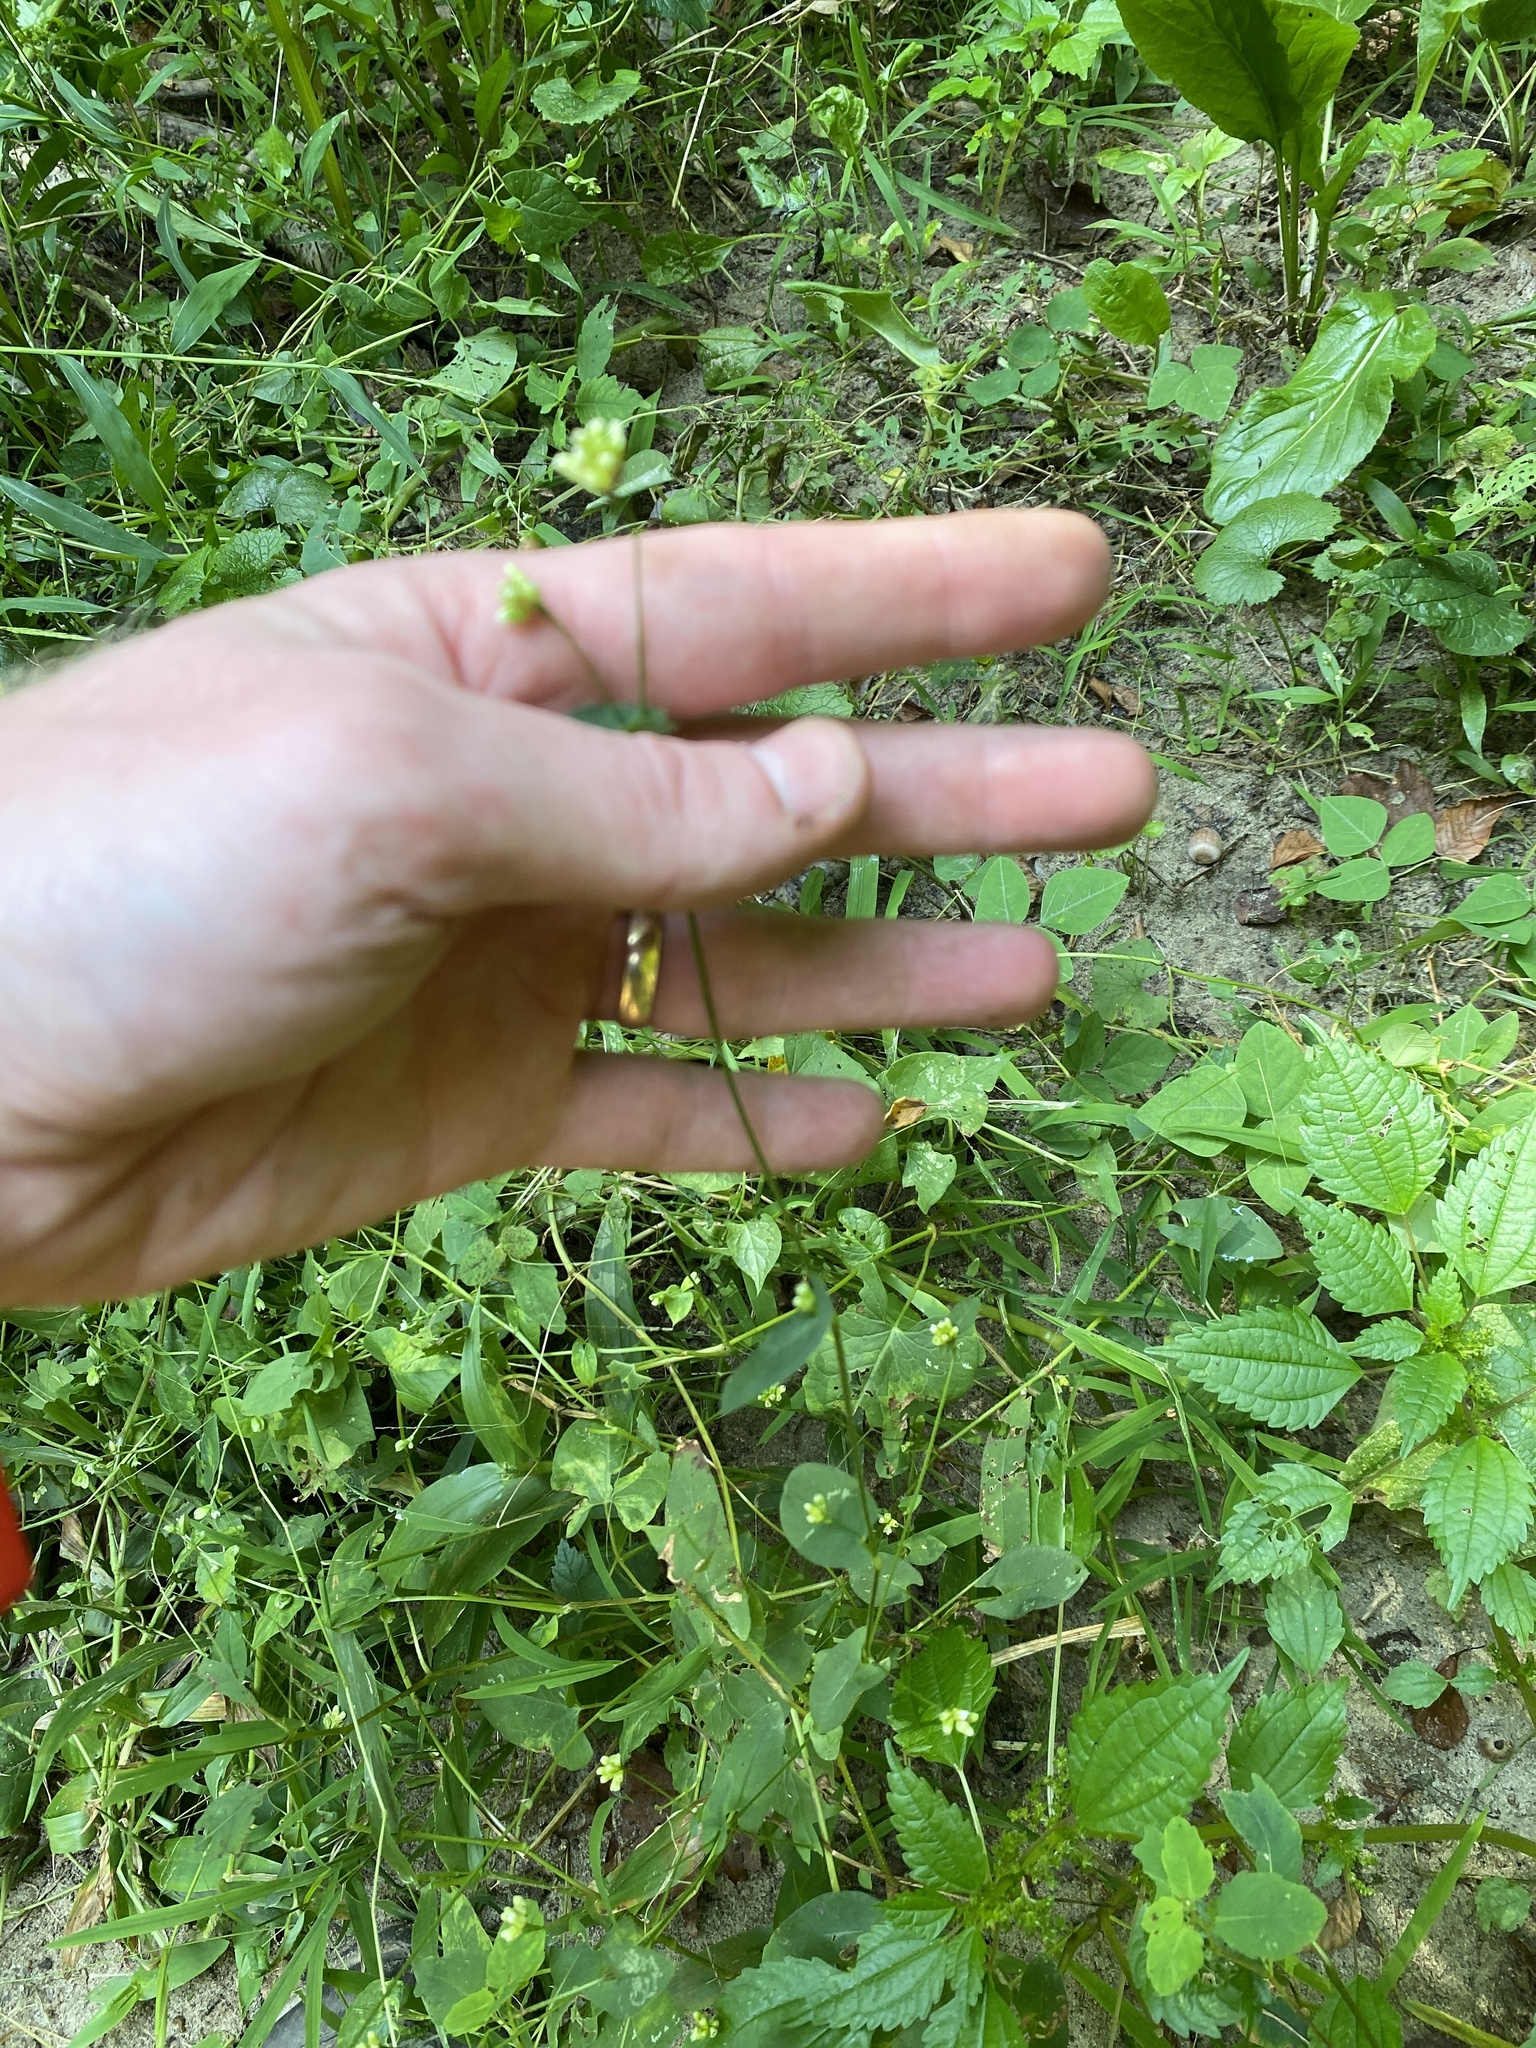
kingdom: Plantae
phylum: Tracheophyta
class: Magnoliopsida
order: Caryophyllales
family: Polygonaceae
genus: Persicaria
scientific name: Persicaria sagittata
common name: American tearthumb
